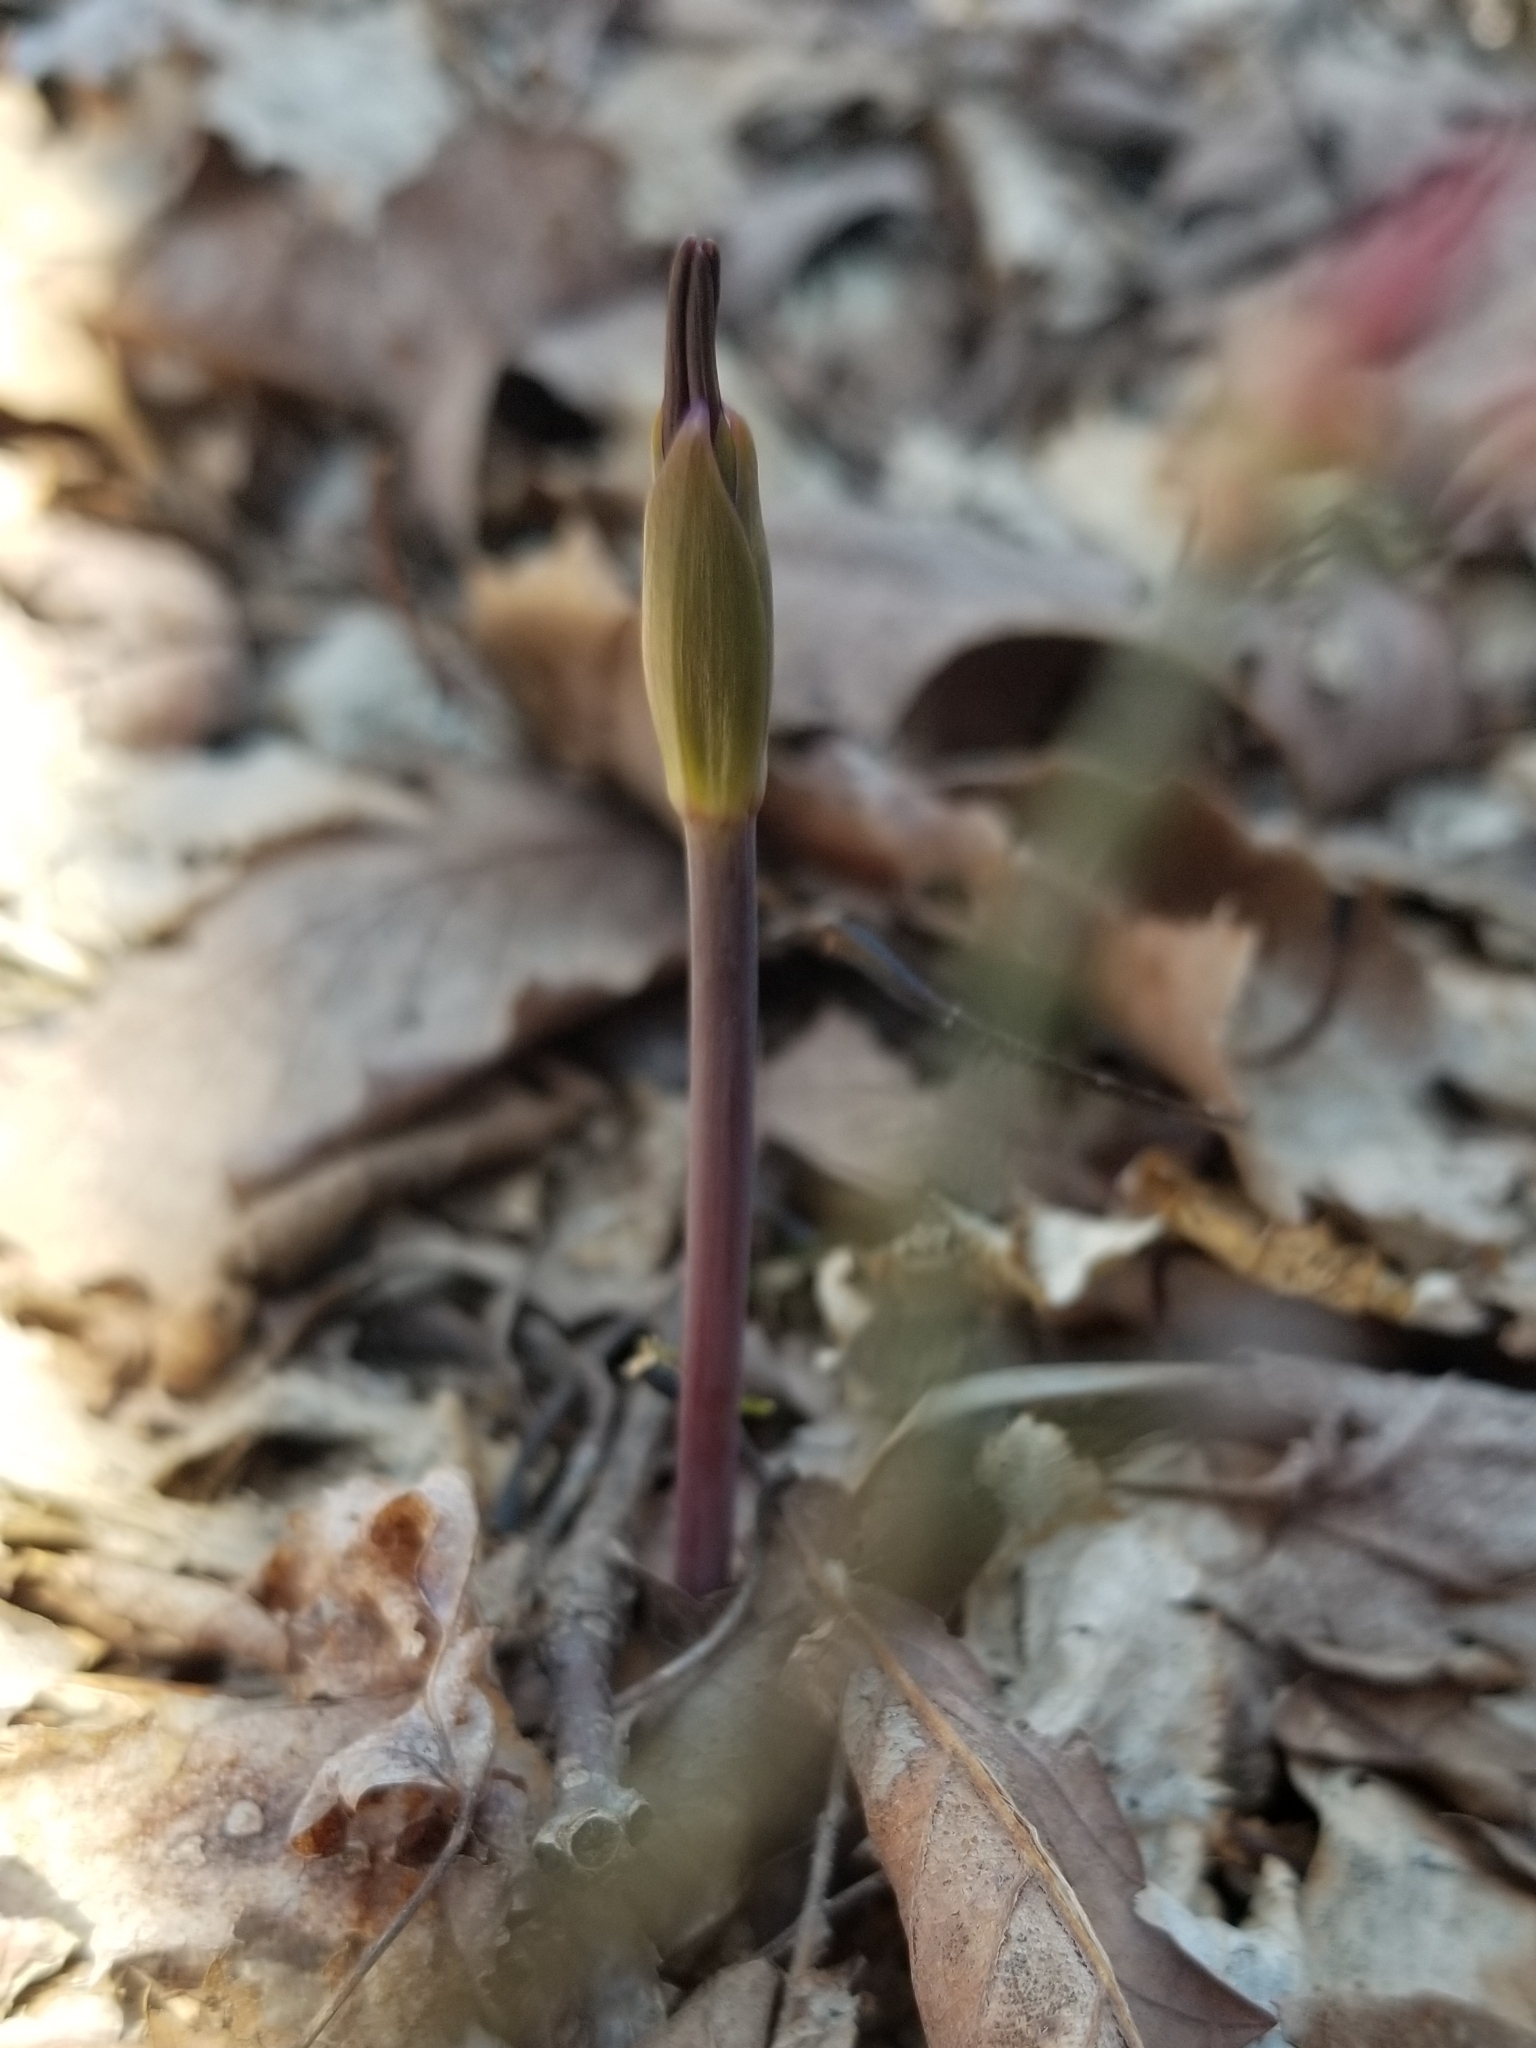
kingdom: Plantae
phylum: Tracheophyta
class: Liliopsida
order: Asparagales
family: Orchidaceae
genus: Isotria
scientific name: Isotria verticillata
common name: Large whorled pogonia
